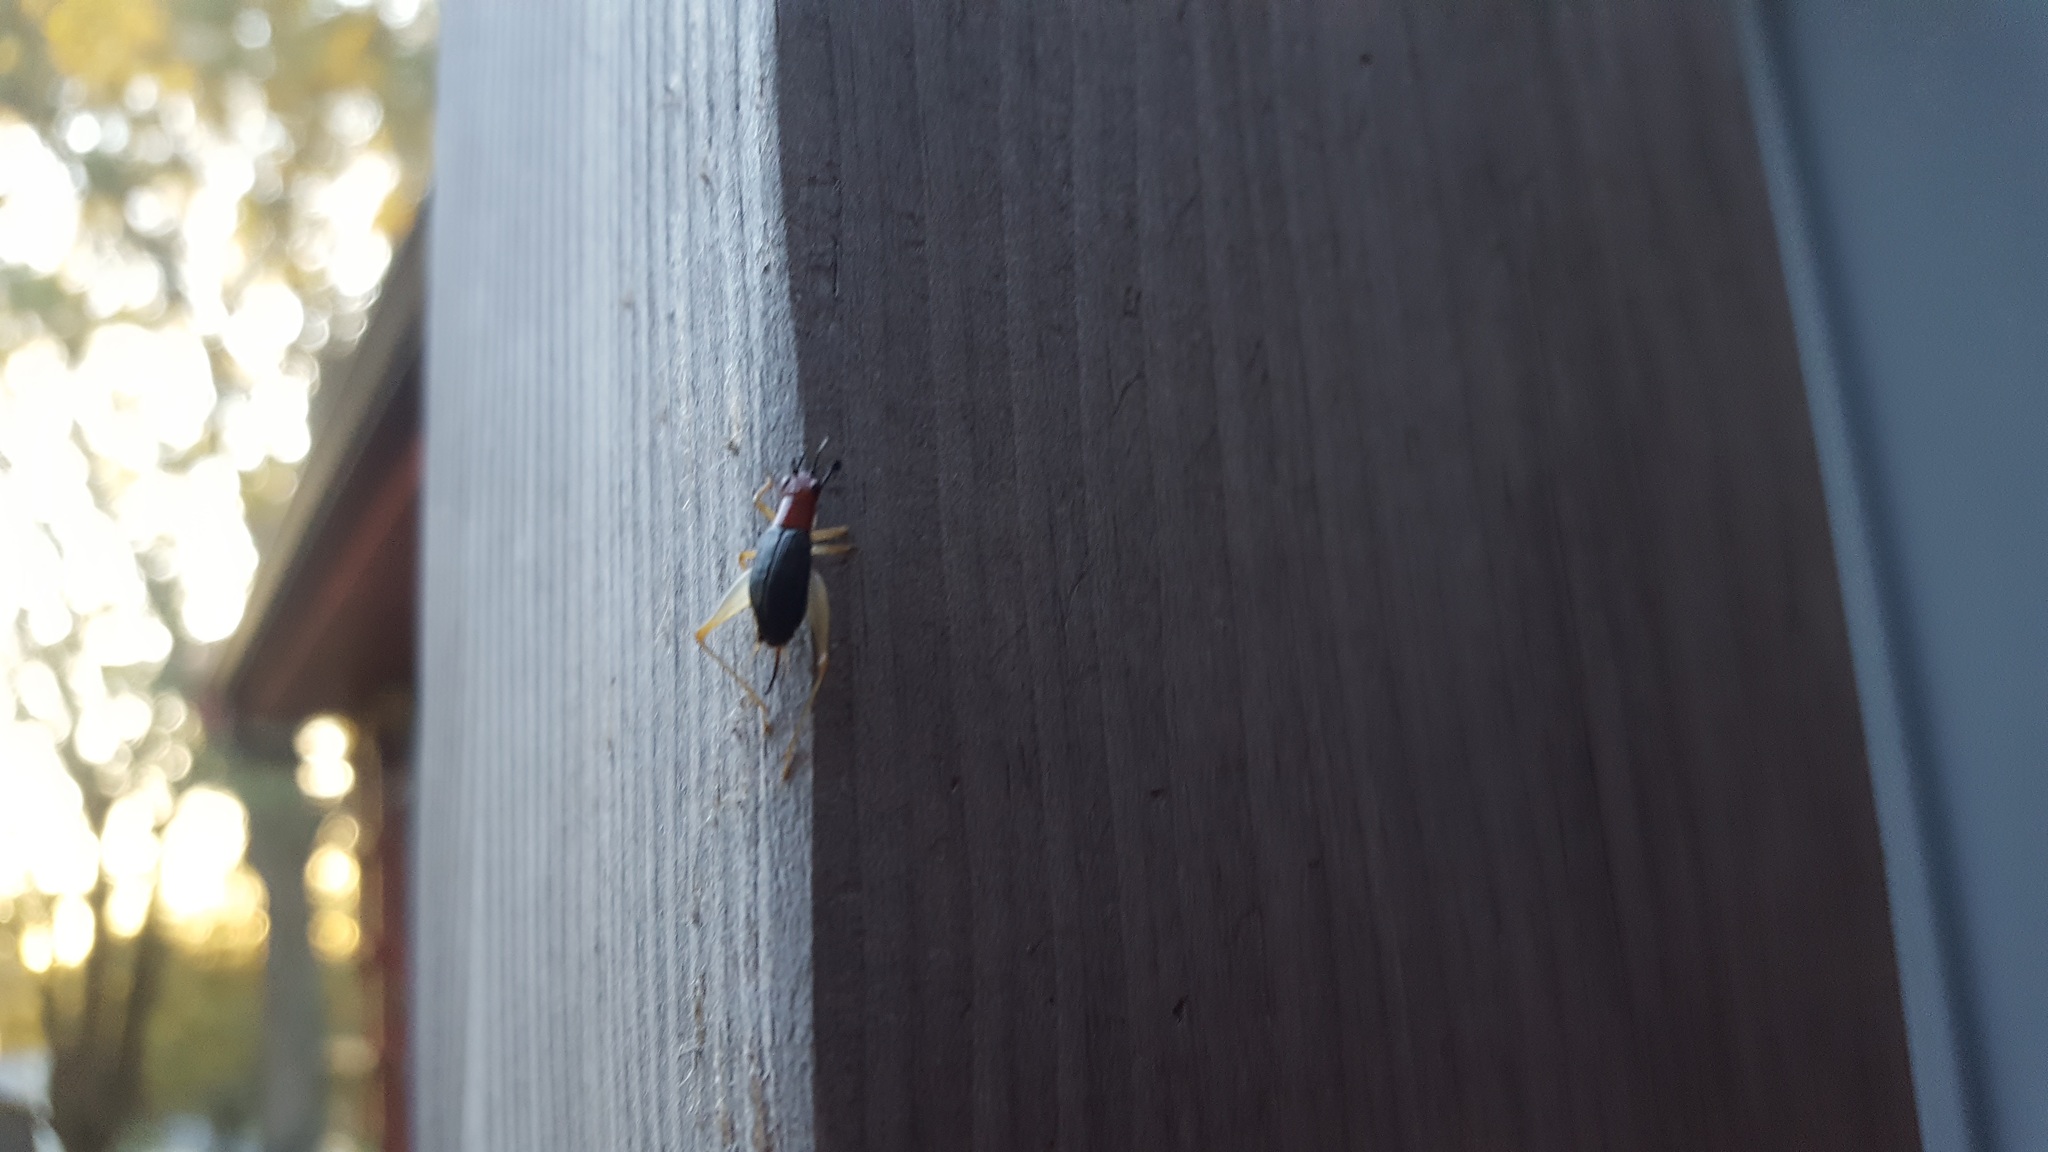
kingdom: Animalia
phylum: Arthropoda
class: Insecta
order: Orthoptera
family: Trigonidiidae
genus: Phyllopalpus
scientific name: Phyllopalpus pulchellus
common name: Handsome trig
